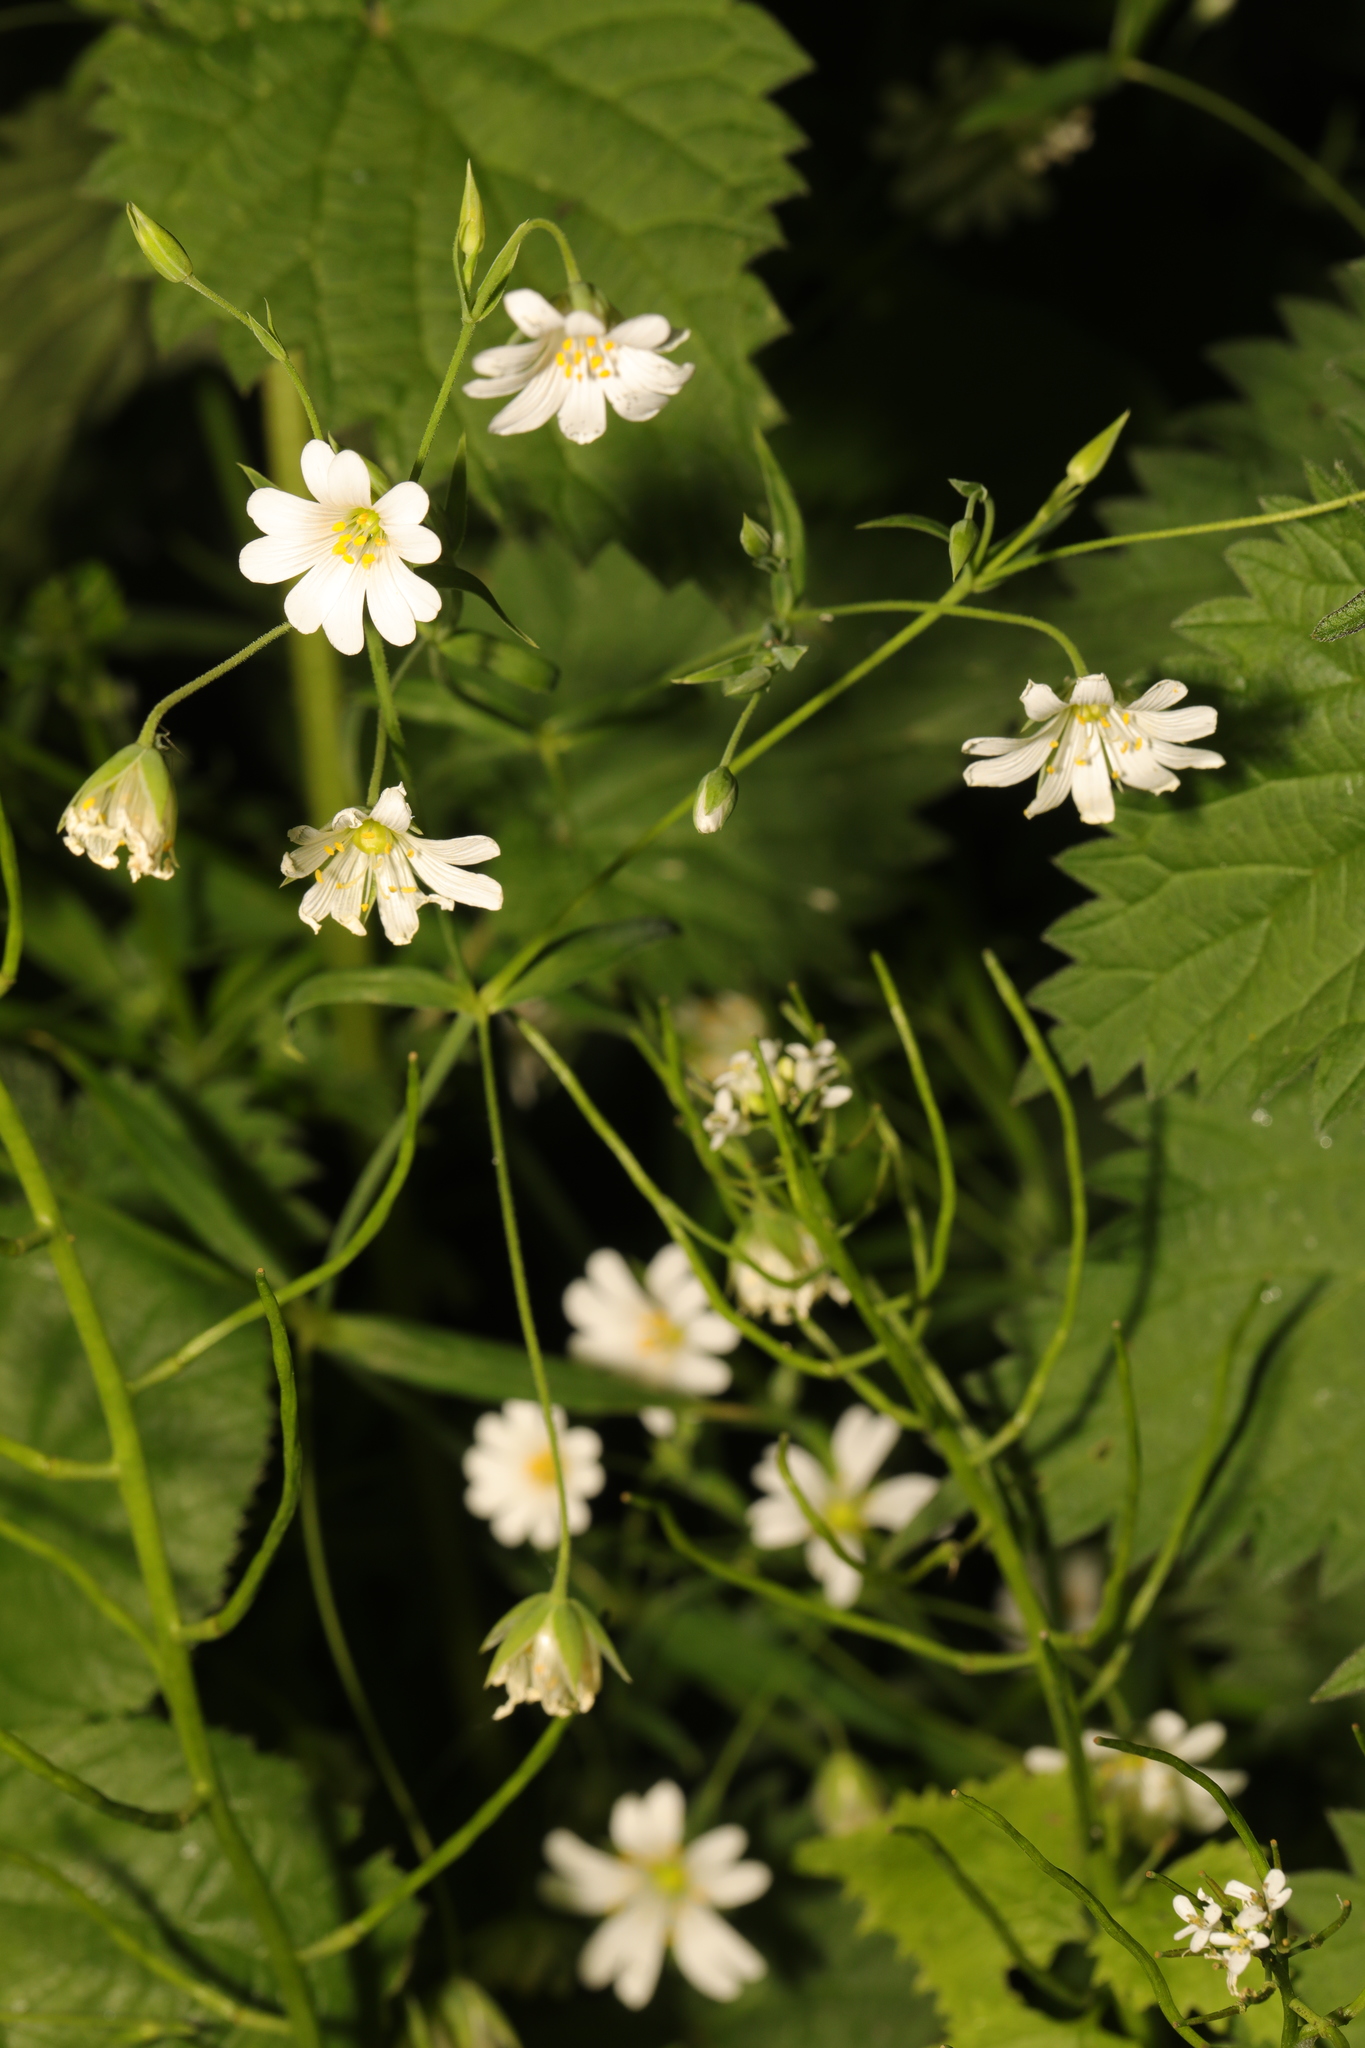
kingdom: Plantae
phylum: Tracheophyta
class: Magnoliopsida
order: Caryophyllales
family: Caryophyllaceae
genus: Rabelera
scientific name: Rabelera holostea
